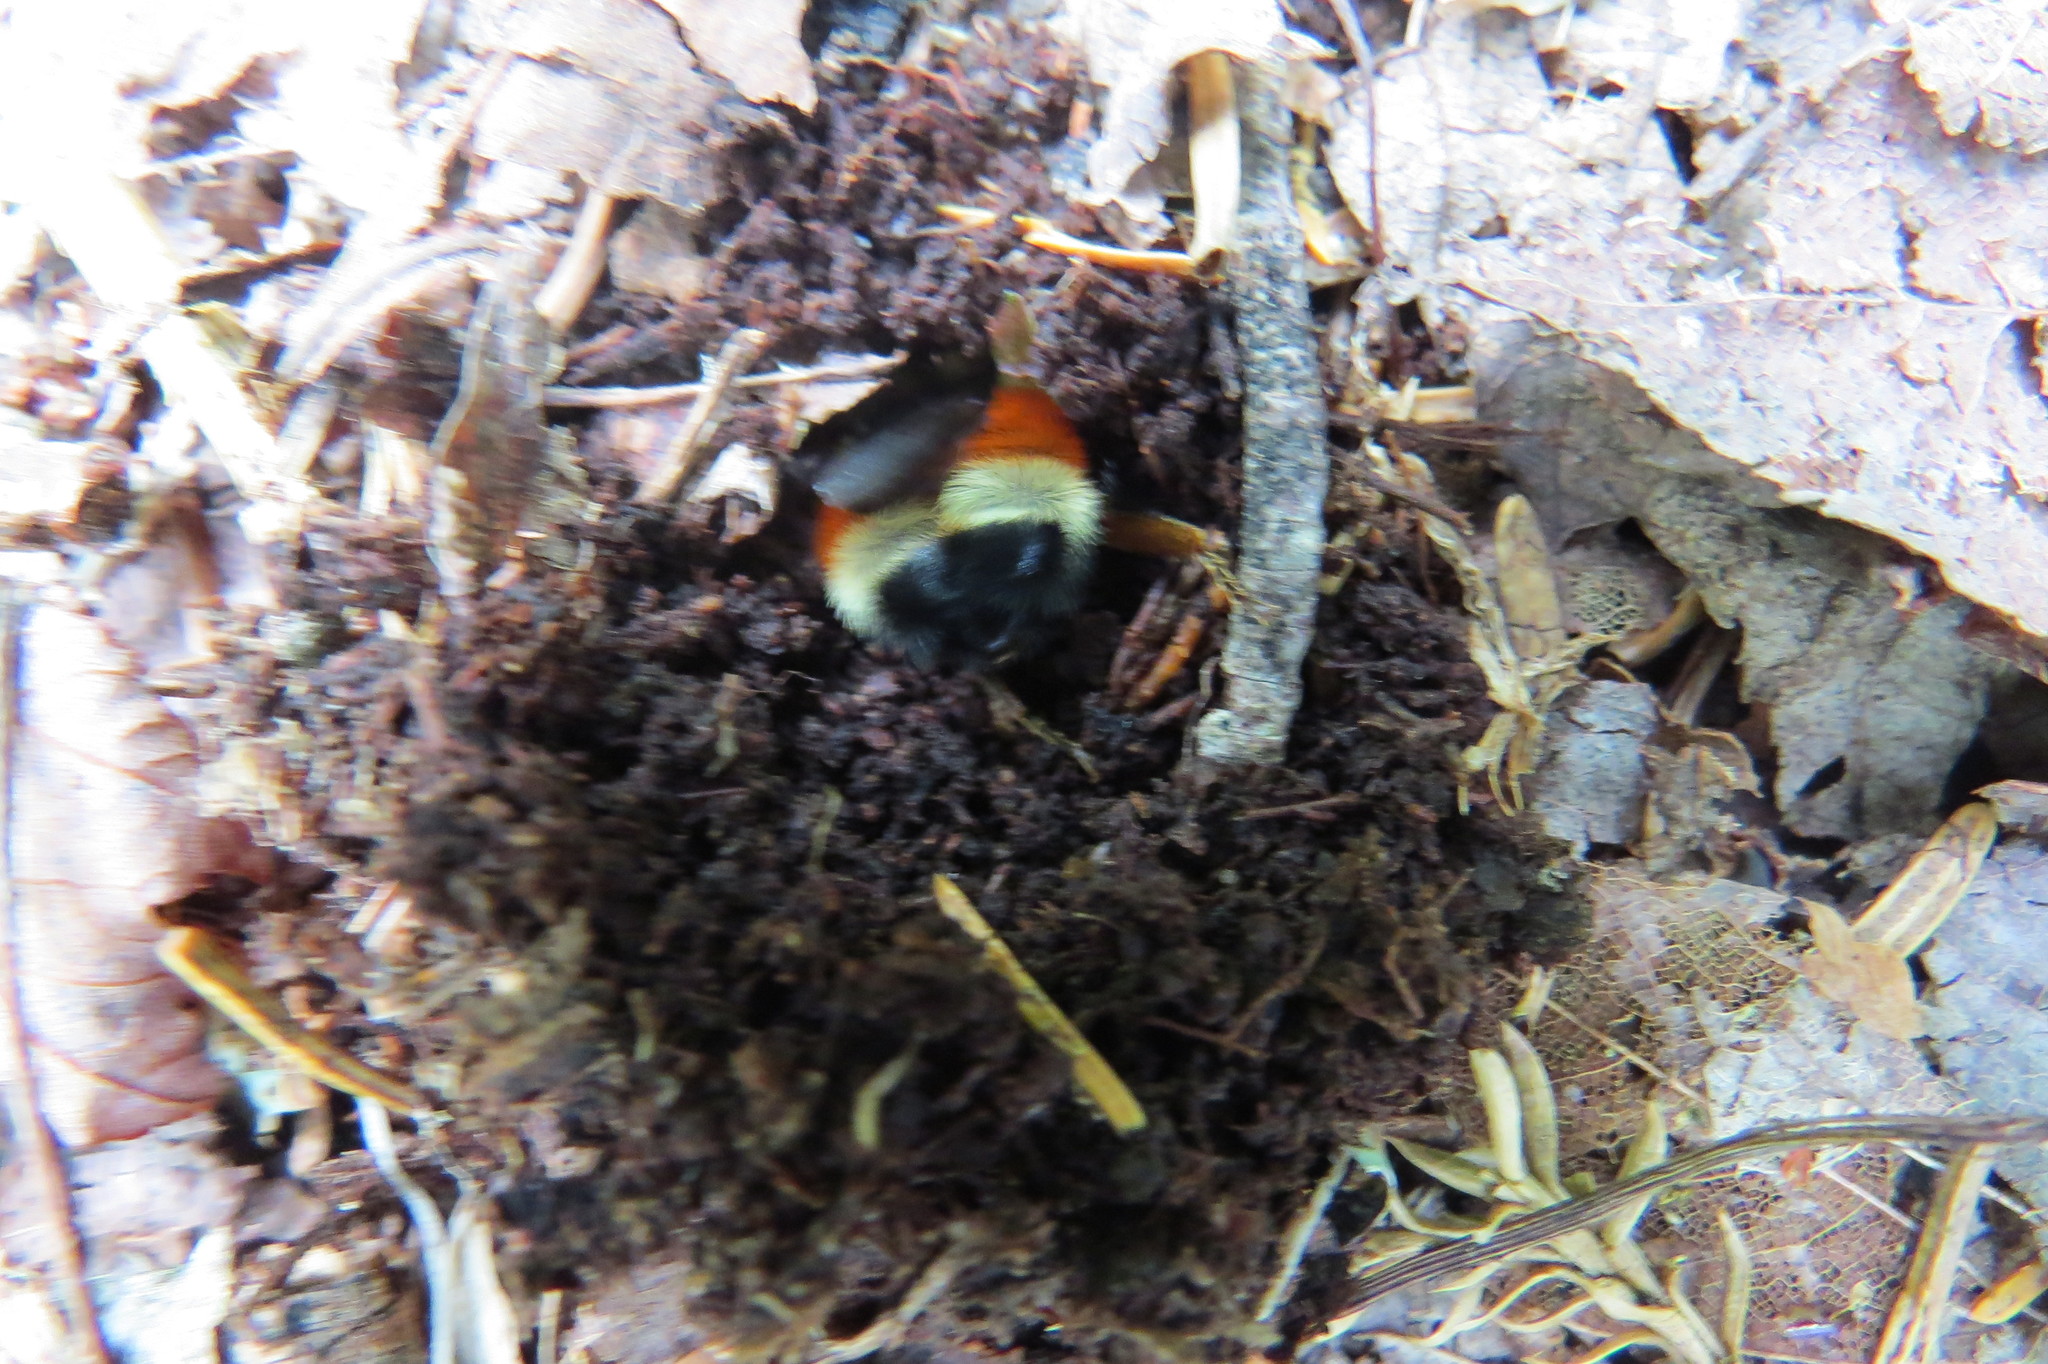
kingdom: Animalia
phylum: Arthropoda
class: Insecta
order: Hymenoptera
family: Apidae
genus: Bombus
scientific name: Bombus ternarius
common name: Tri-colored bumble bee
